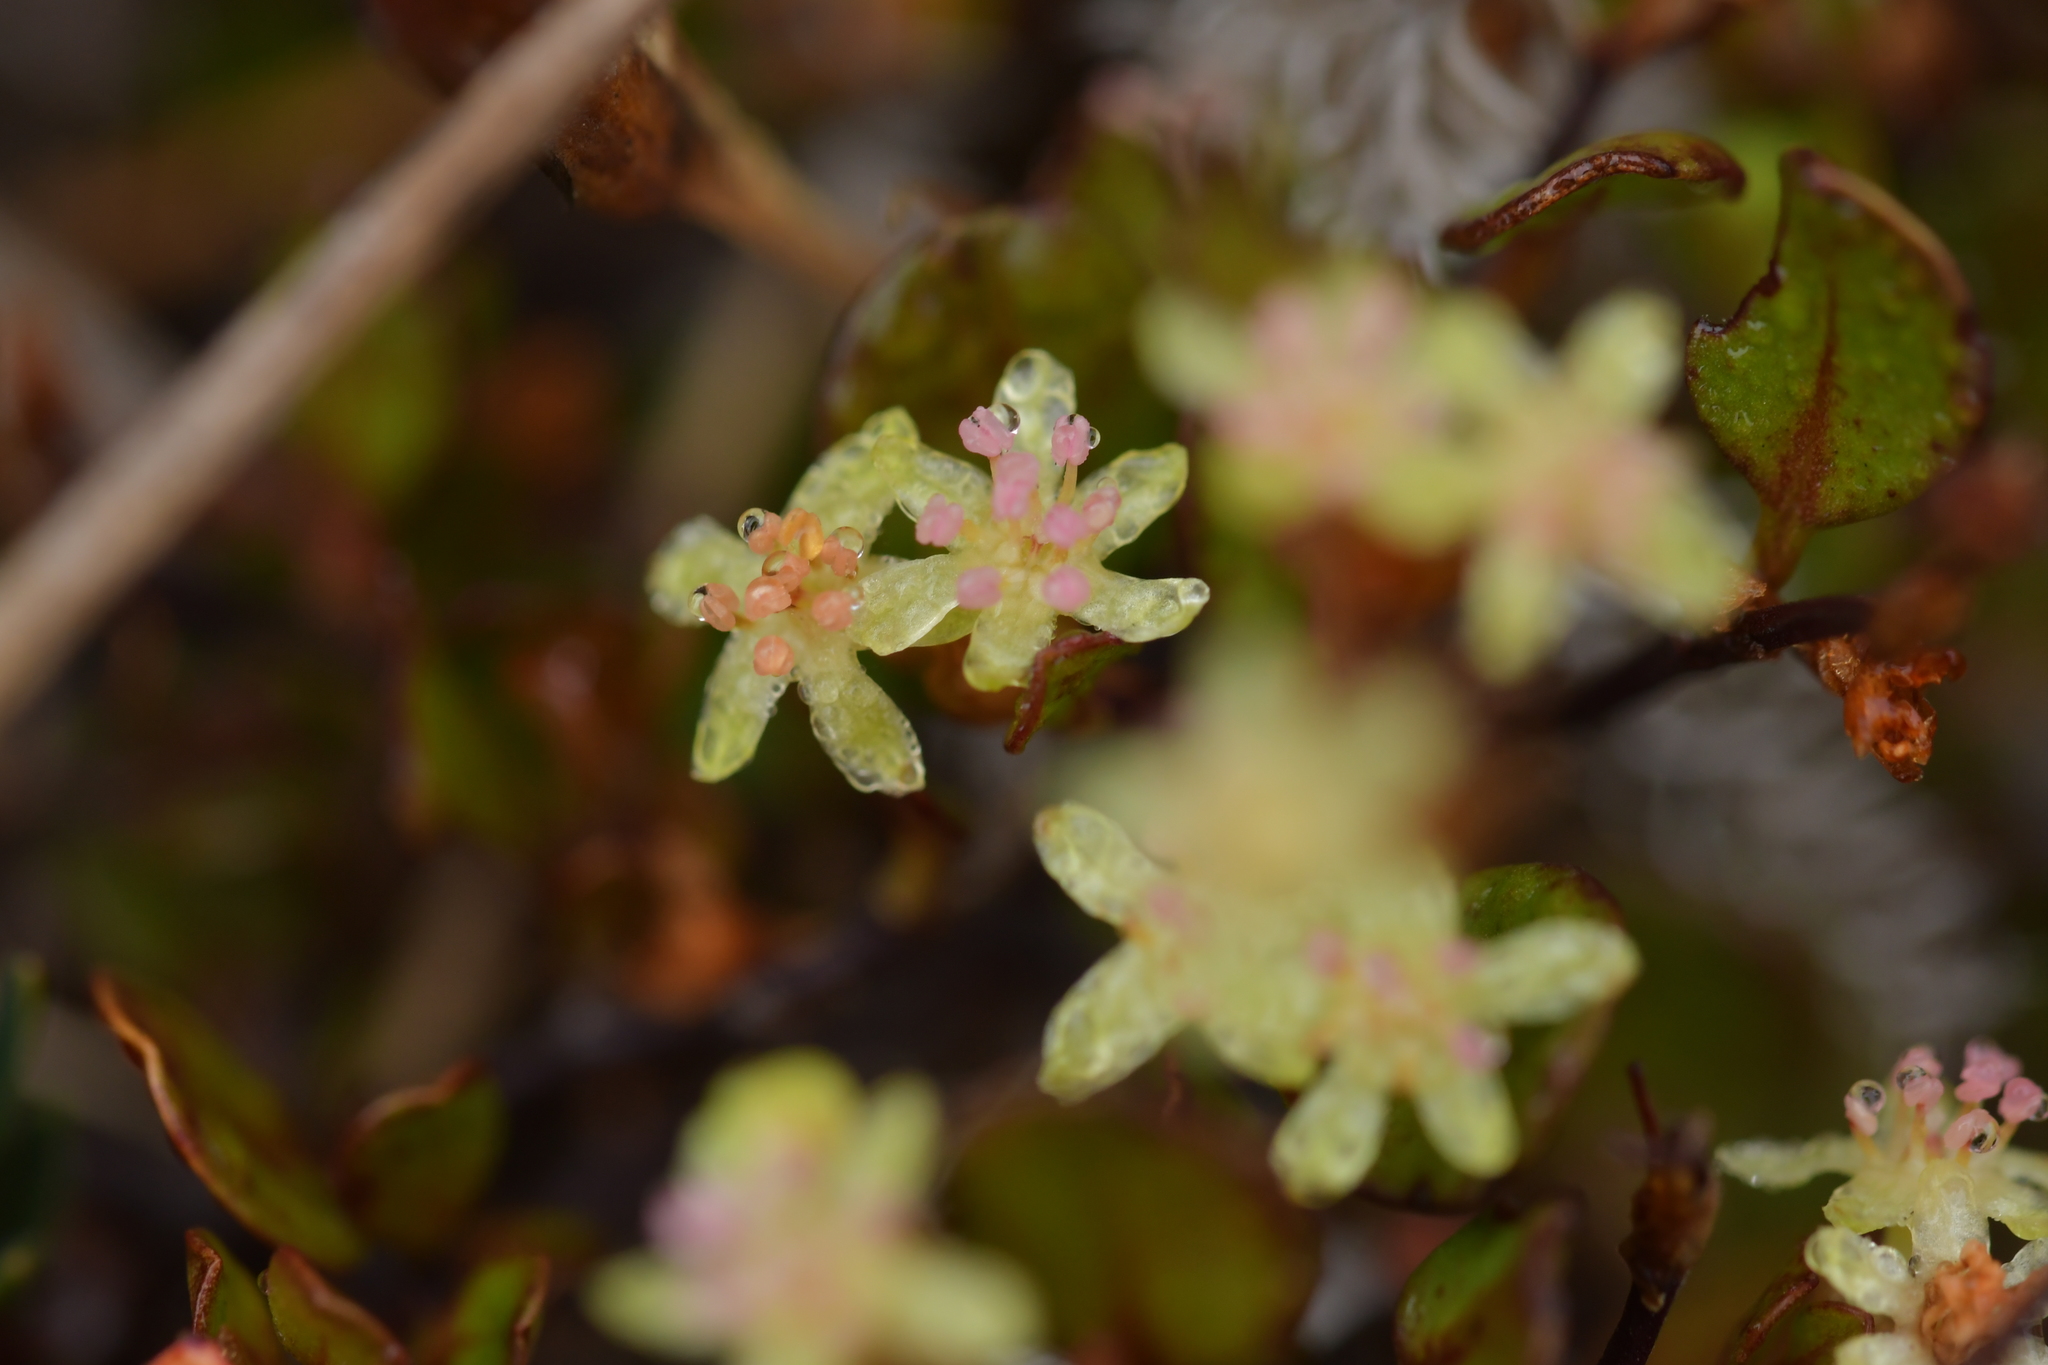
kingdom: Plantae
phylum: Tracheophyta
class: Magnoliopsida
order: Caryophyllales
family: Polygonaceae
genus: Muehlenbeckia
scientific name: Muehlenbeckia axillaris
